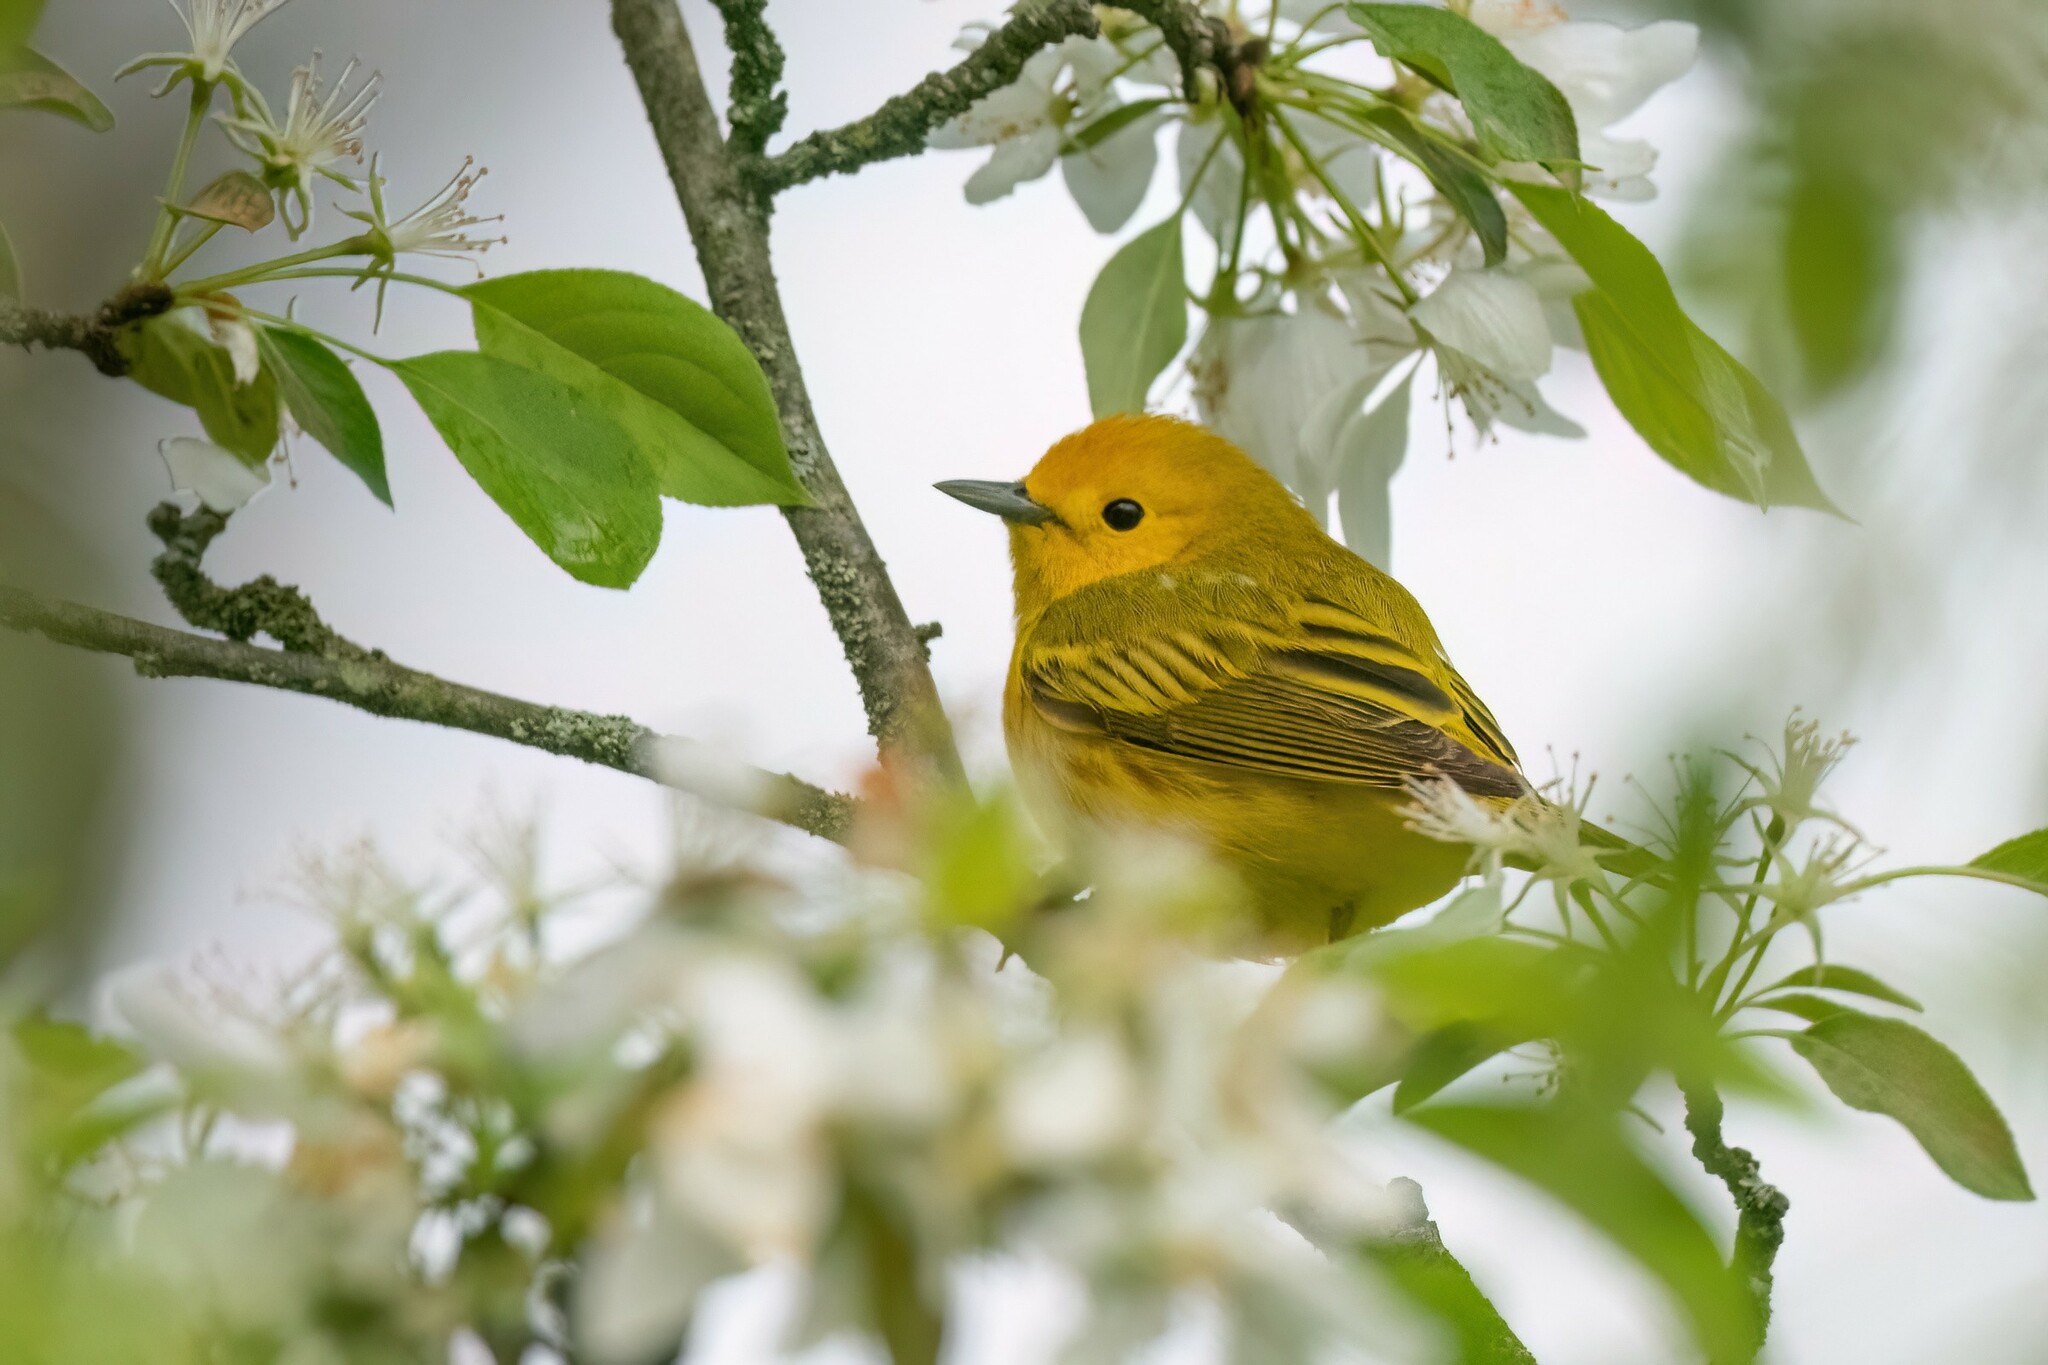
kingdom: Animalia
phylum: Chordata
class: Aves
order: Passeriformes
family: Parulidae
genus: Setophaga
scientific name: Setophaga petechia
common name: Yellow warbler
